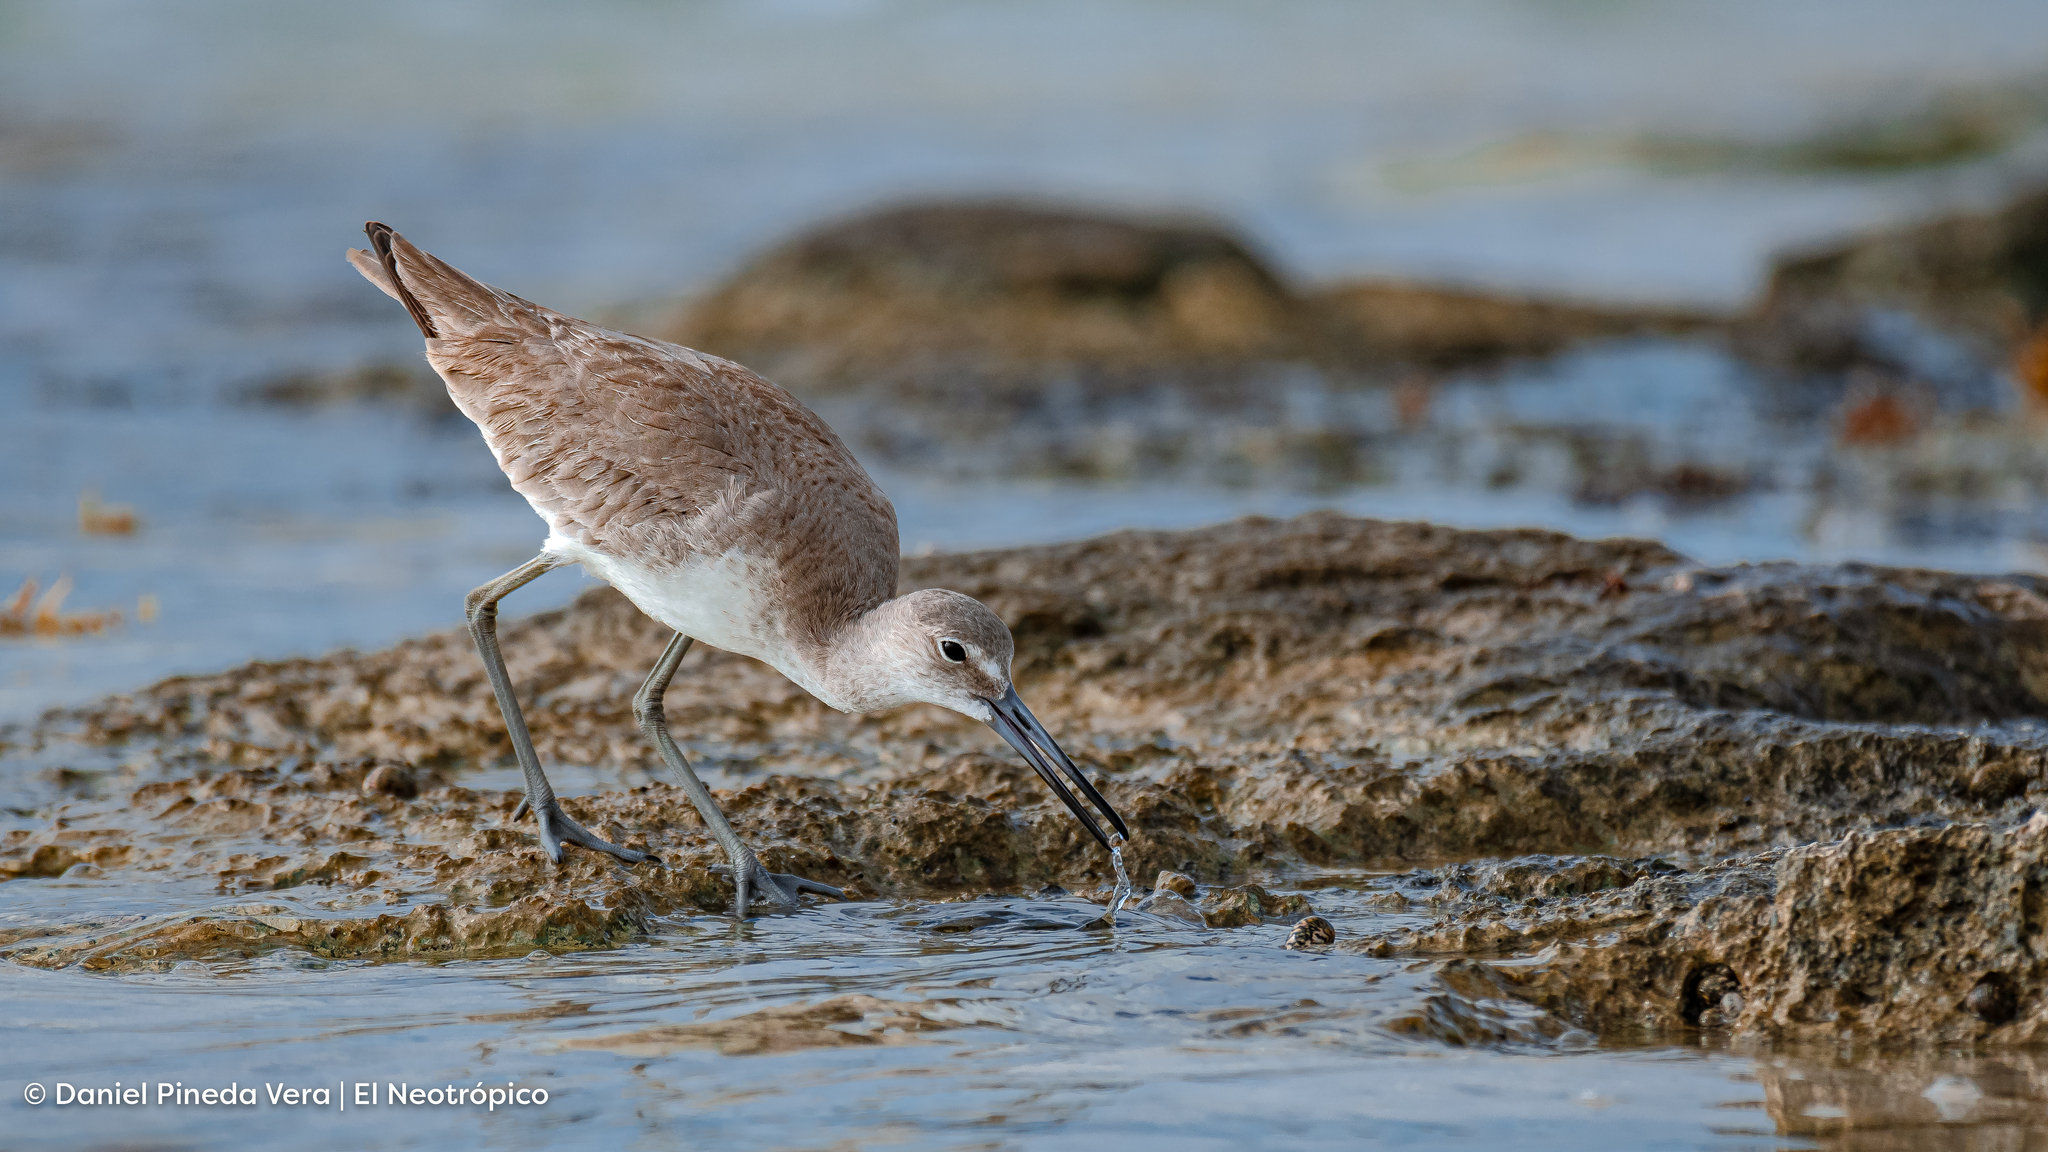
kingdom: Animalia
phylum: Chordata
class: Aves
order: Charadriiformes
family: Scolopacidae
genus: Tringa
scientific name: Tringa semipalmata
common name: Willet
